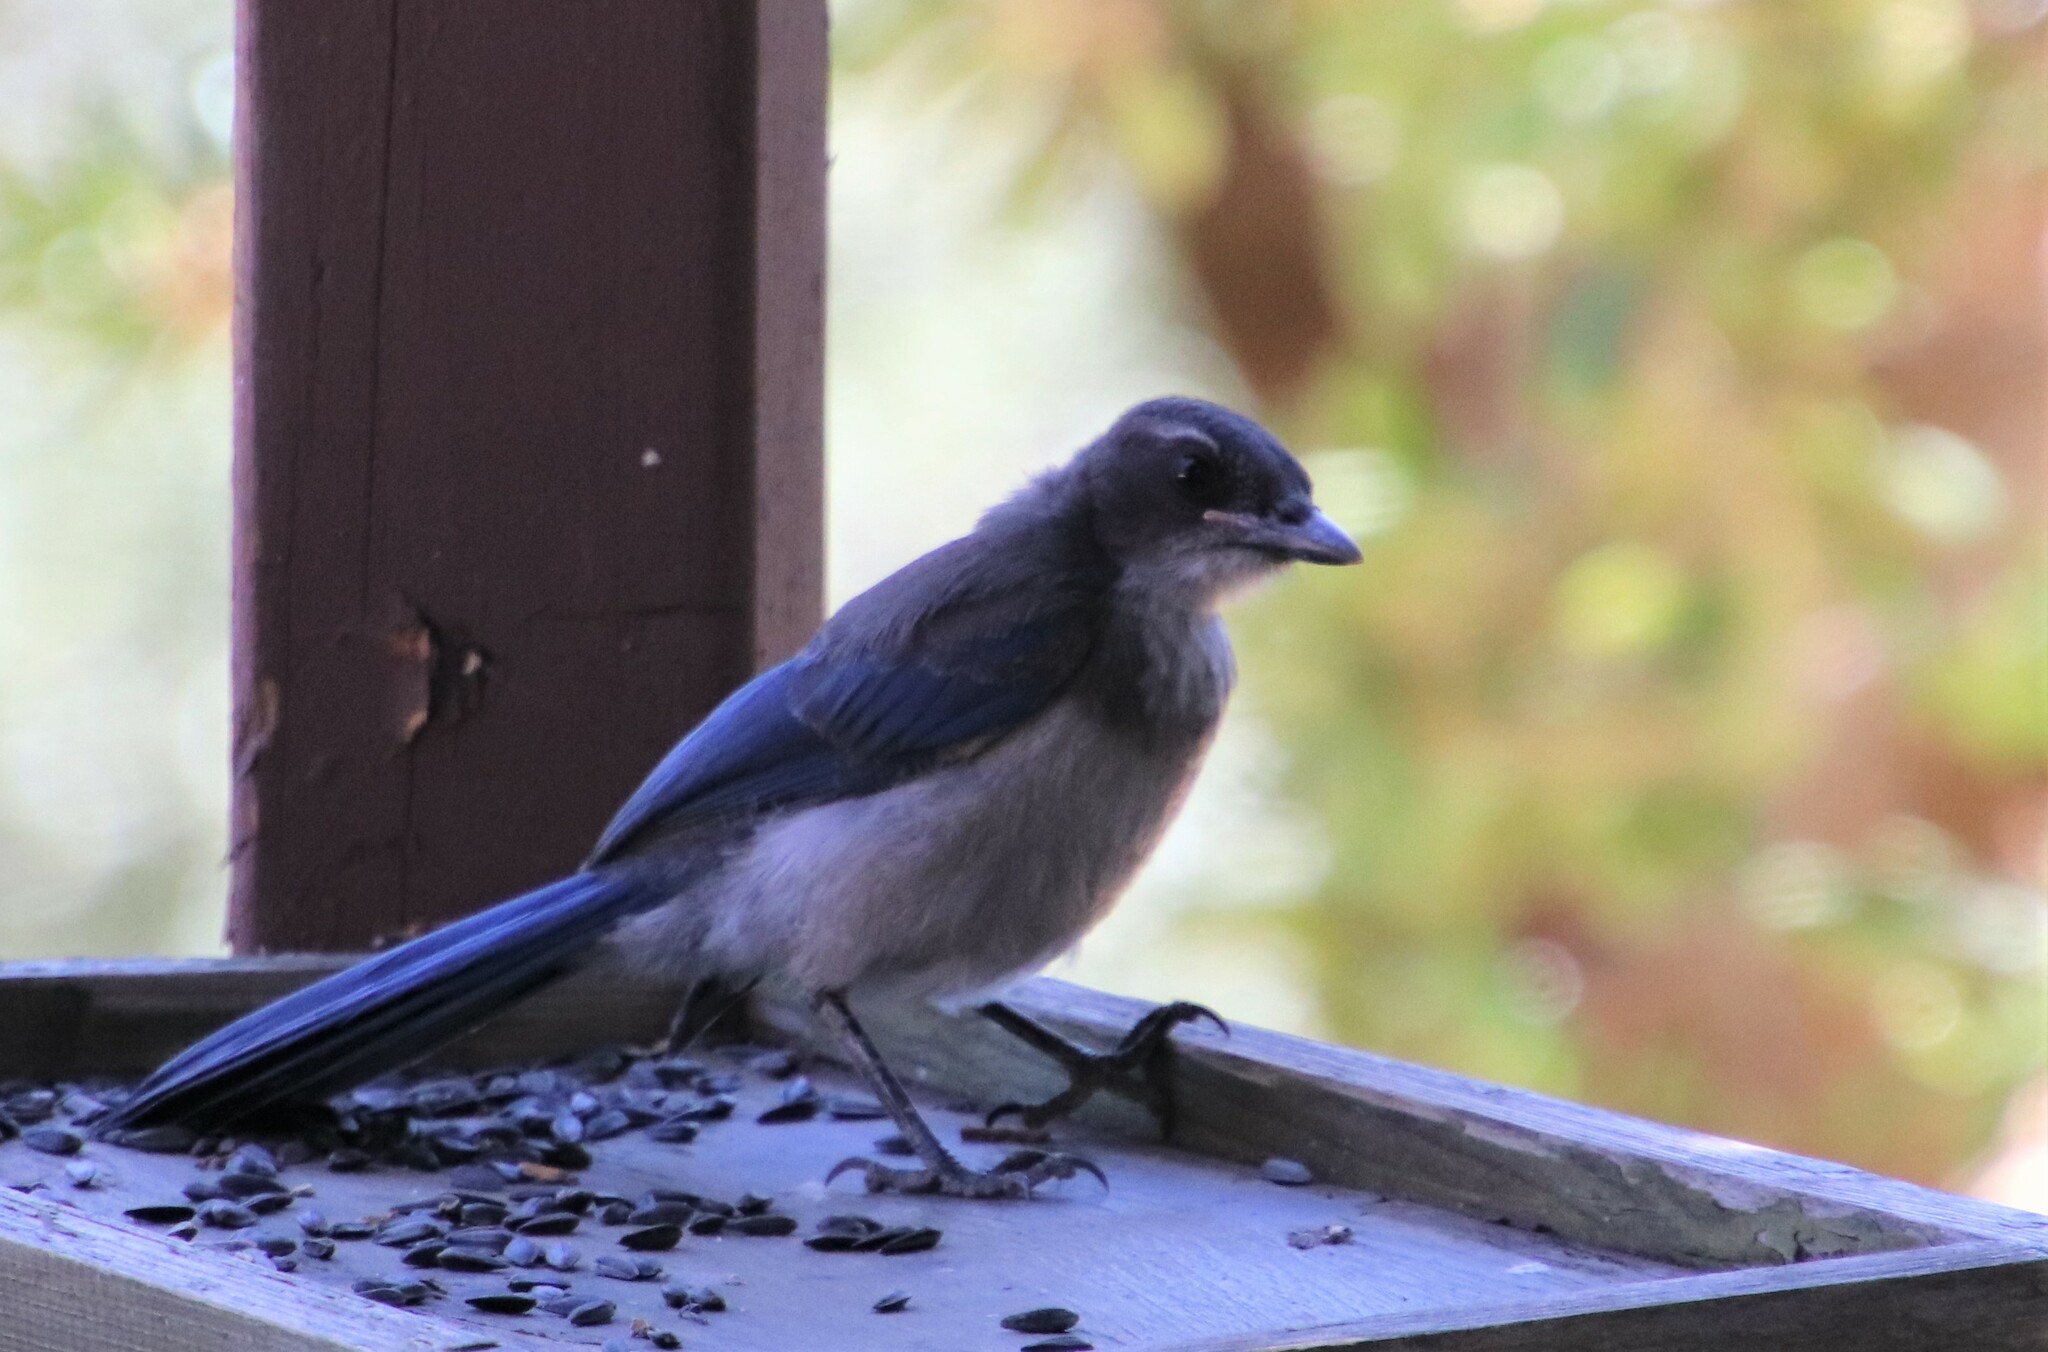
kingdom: Animalia
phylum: Chordata
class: Aves
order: Passeriformes
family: Corvidae
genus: Aphelocoma
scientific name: Aphelocoma californica
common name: California scrub-jay
